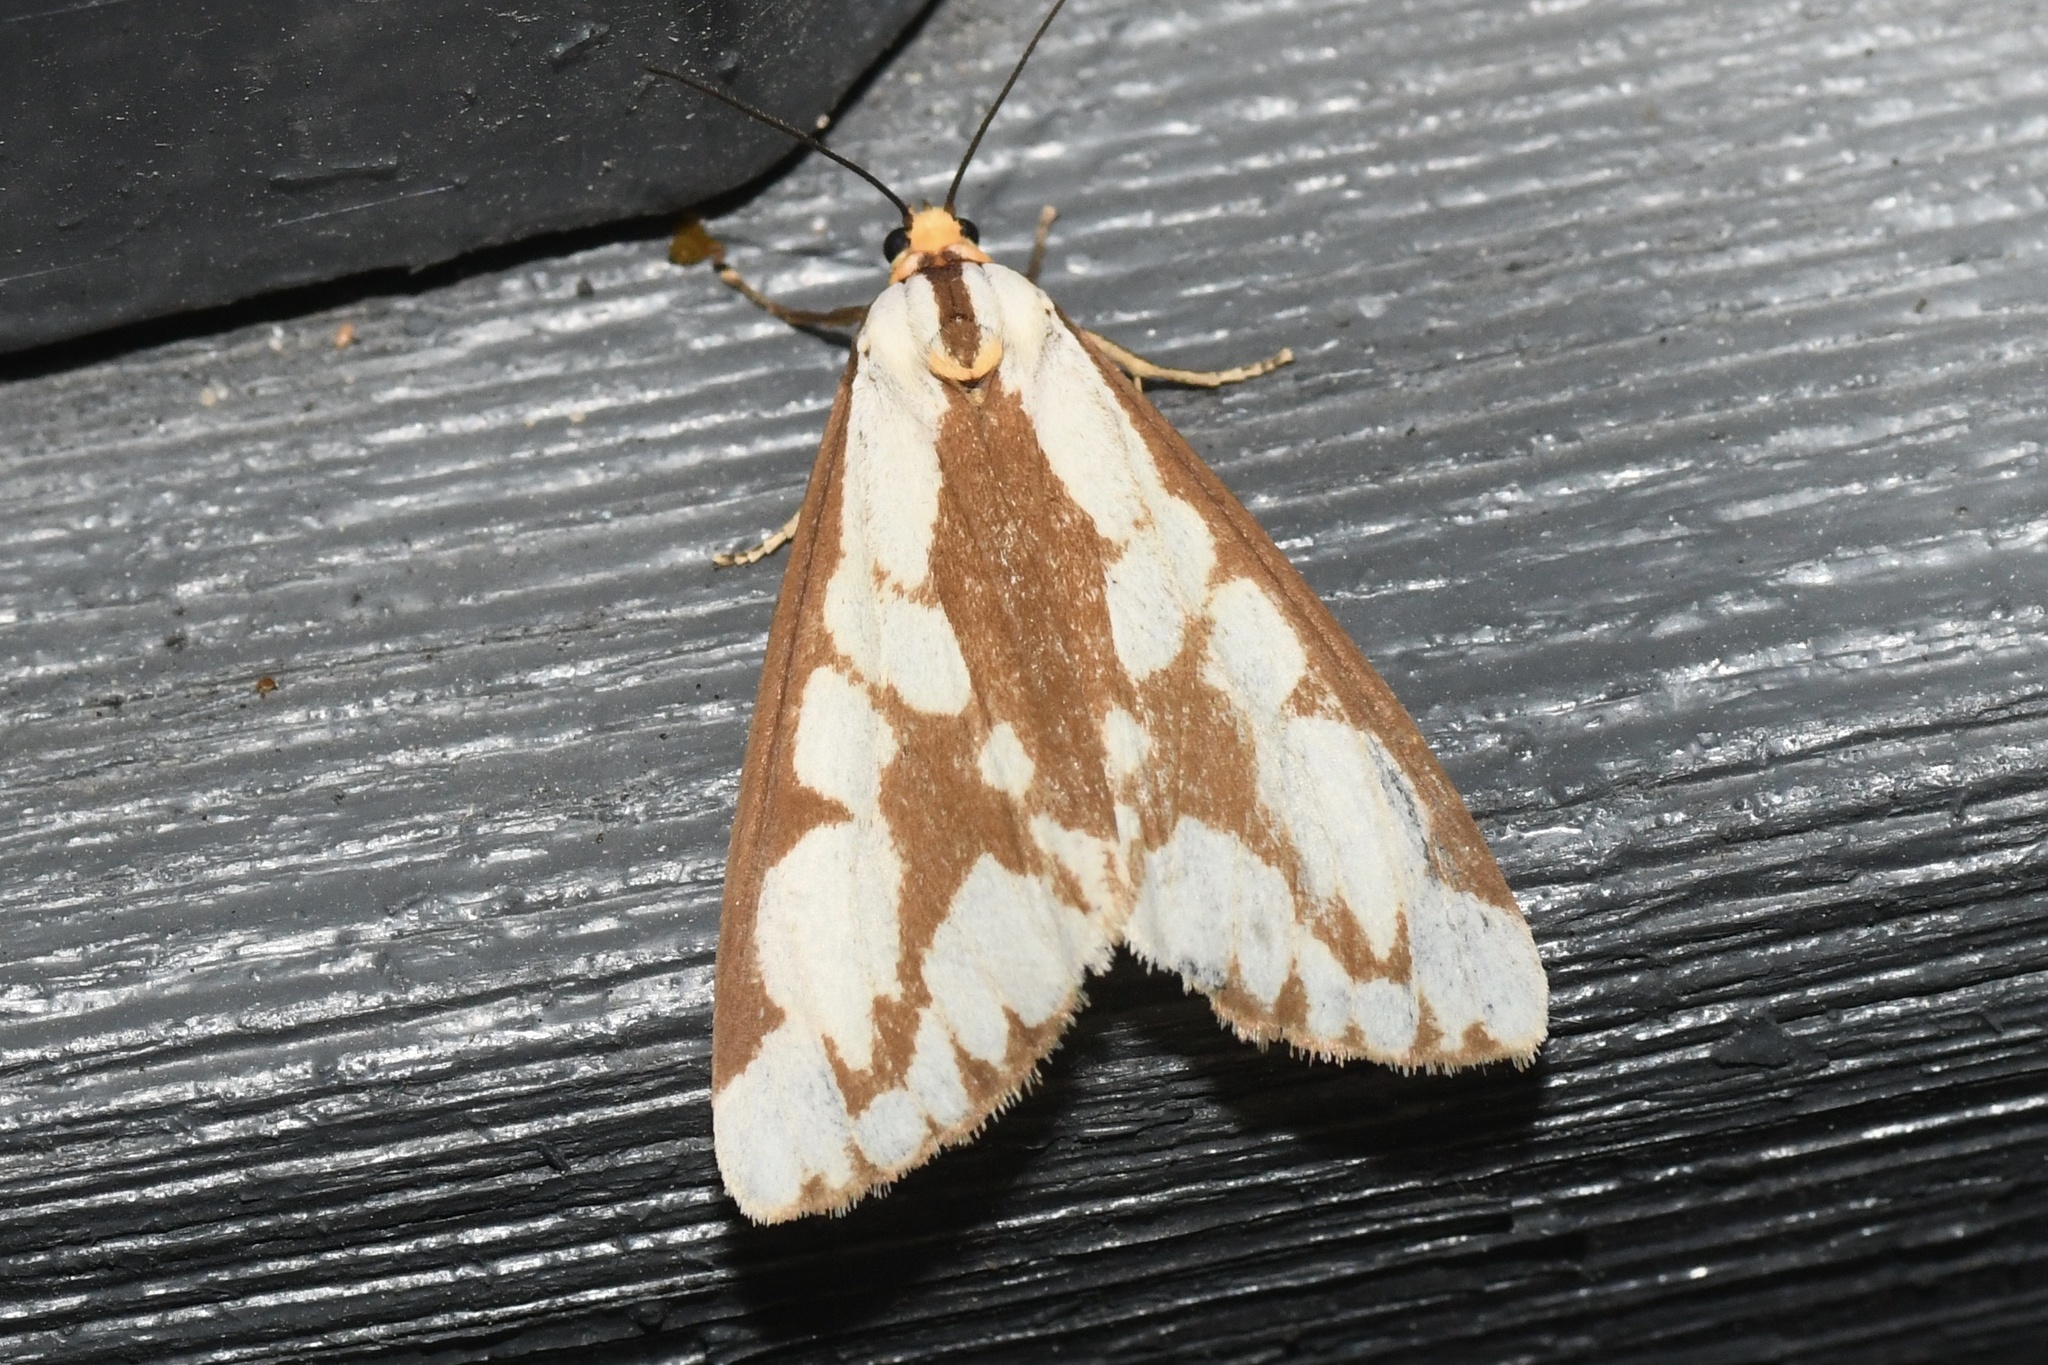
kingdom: Animalia
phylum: Arthropoda
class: Insecta
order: Lepidoptera
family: Erebidae
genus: Haploa
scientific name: Haploa confusa
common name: Confused haploa moth
